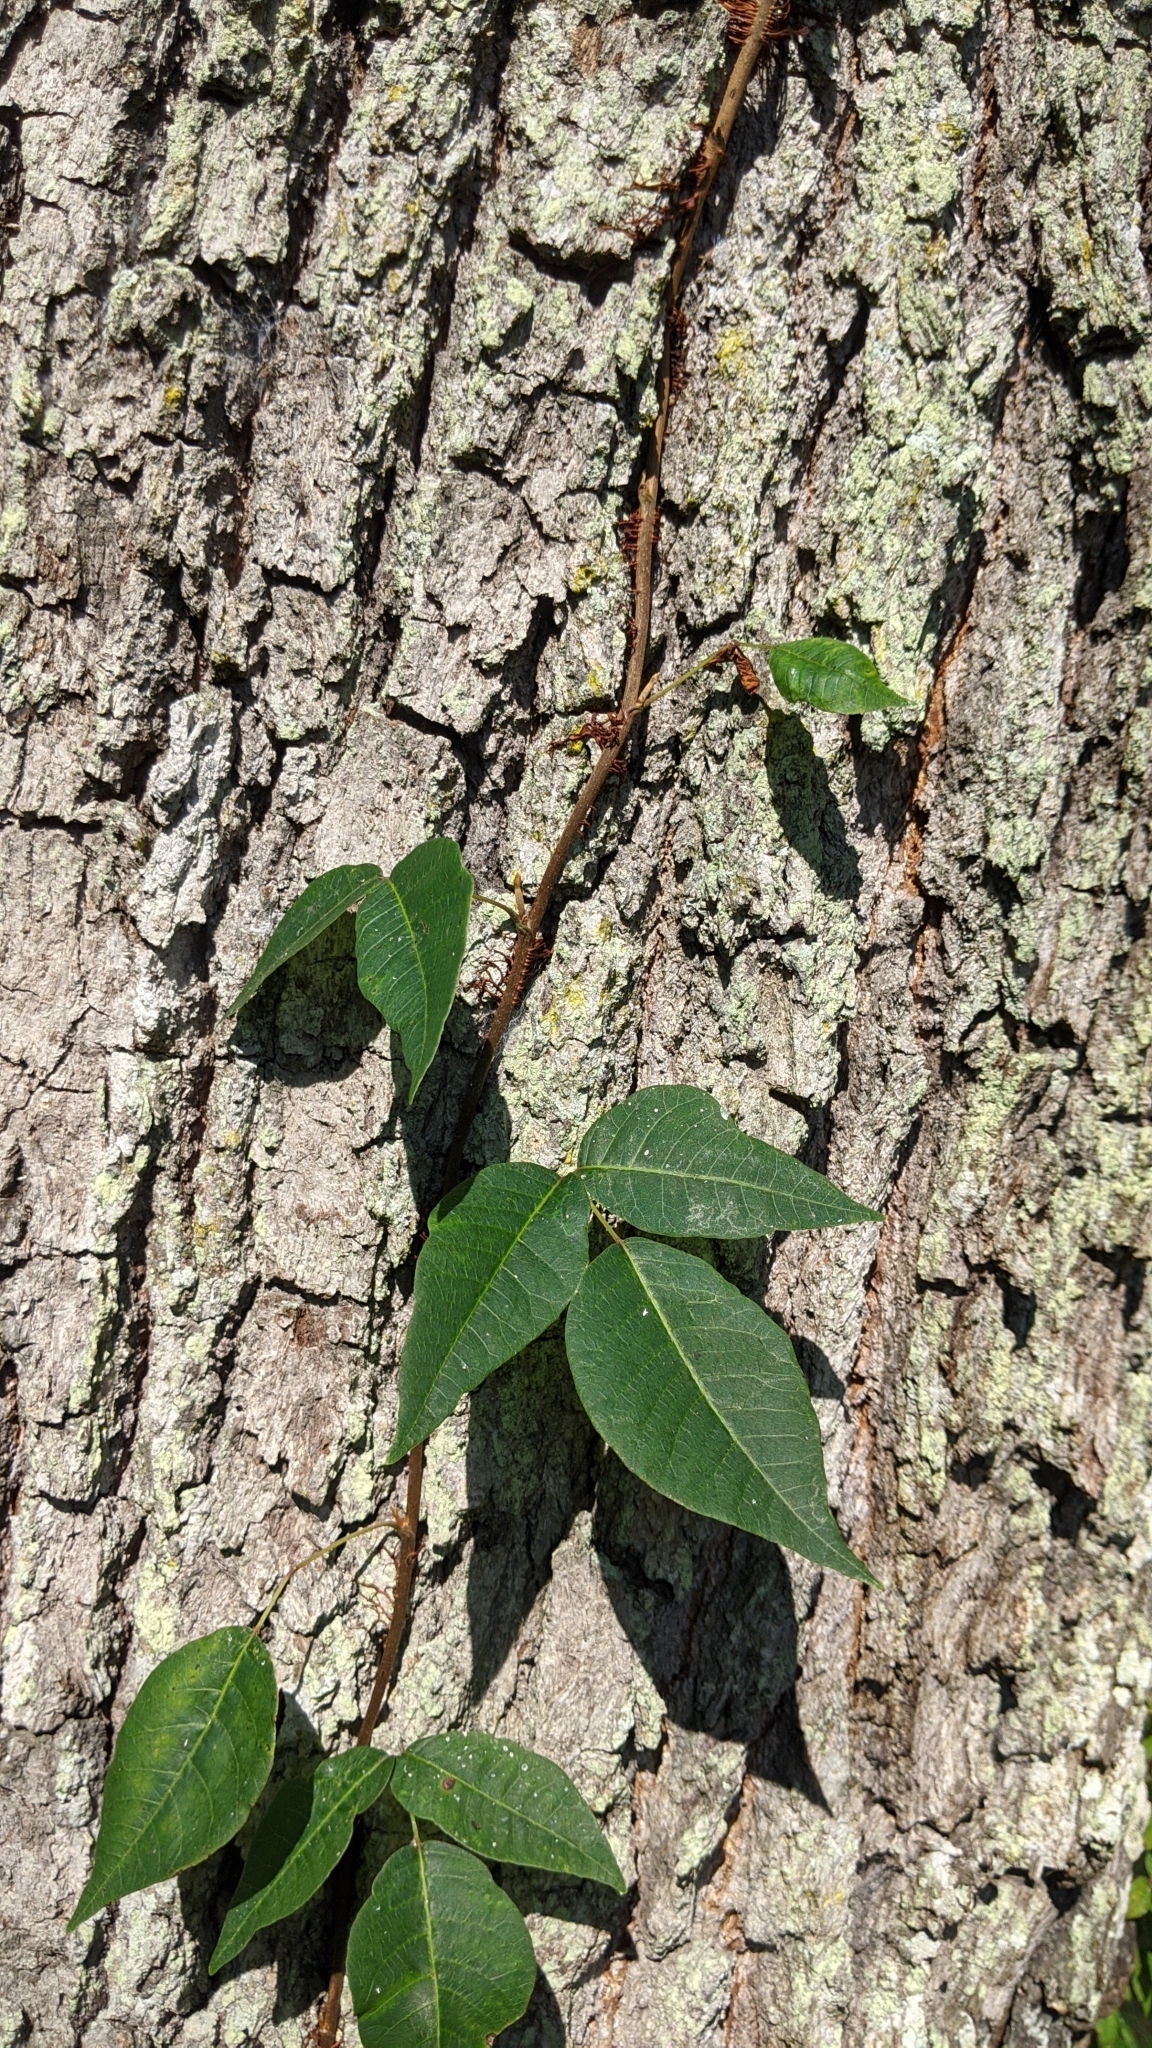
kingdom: Plantae
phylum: Tracheophyta
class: Magnoliopsida
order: Sapindales
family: Anacardiaceae
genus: Toxicodendron
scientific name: Toxicodendron radicans
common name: Poison ivy
